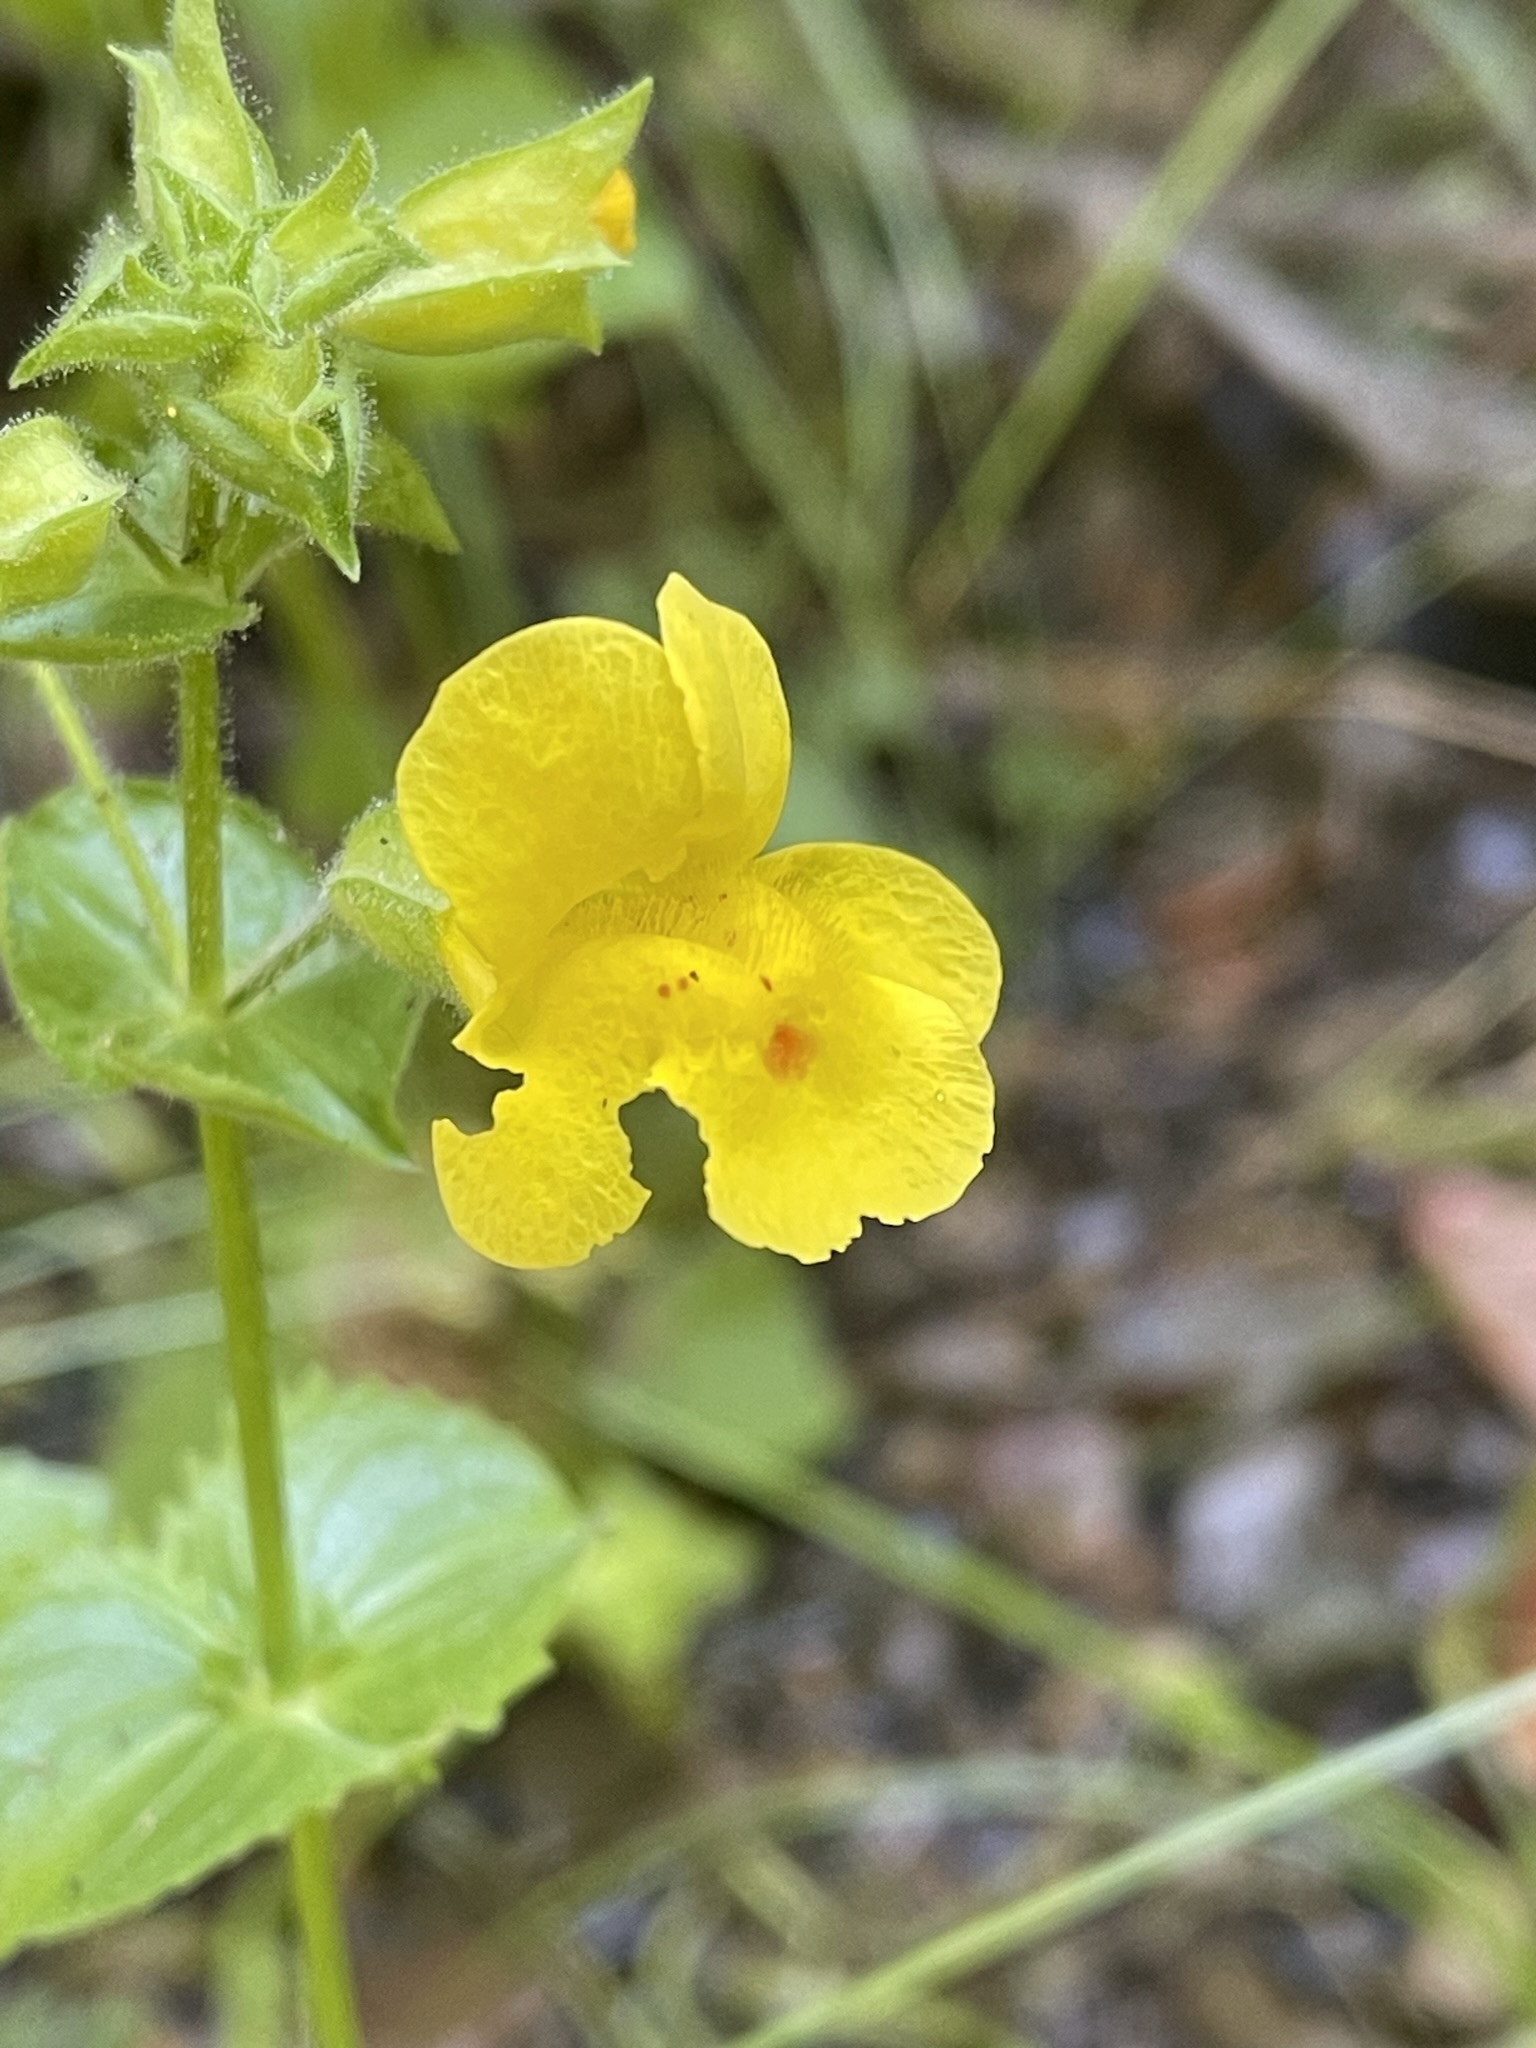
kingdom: Plantae
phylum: Tracheophyta
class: Magnoliopsida
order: Lamiales
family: Phrymaceae
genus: Erythranthe
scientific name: Erythranthe guttata
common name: Monkeyflower
